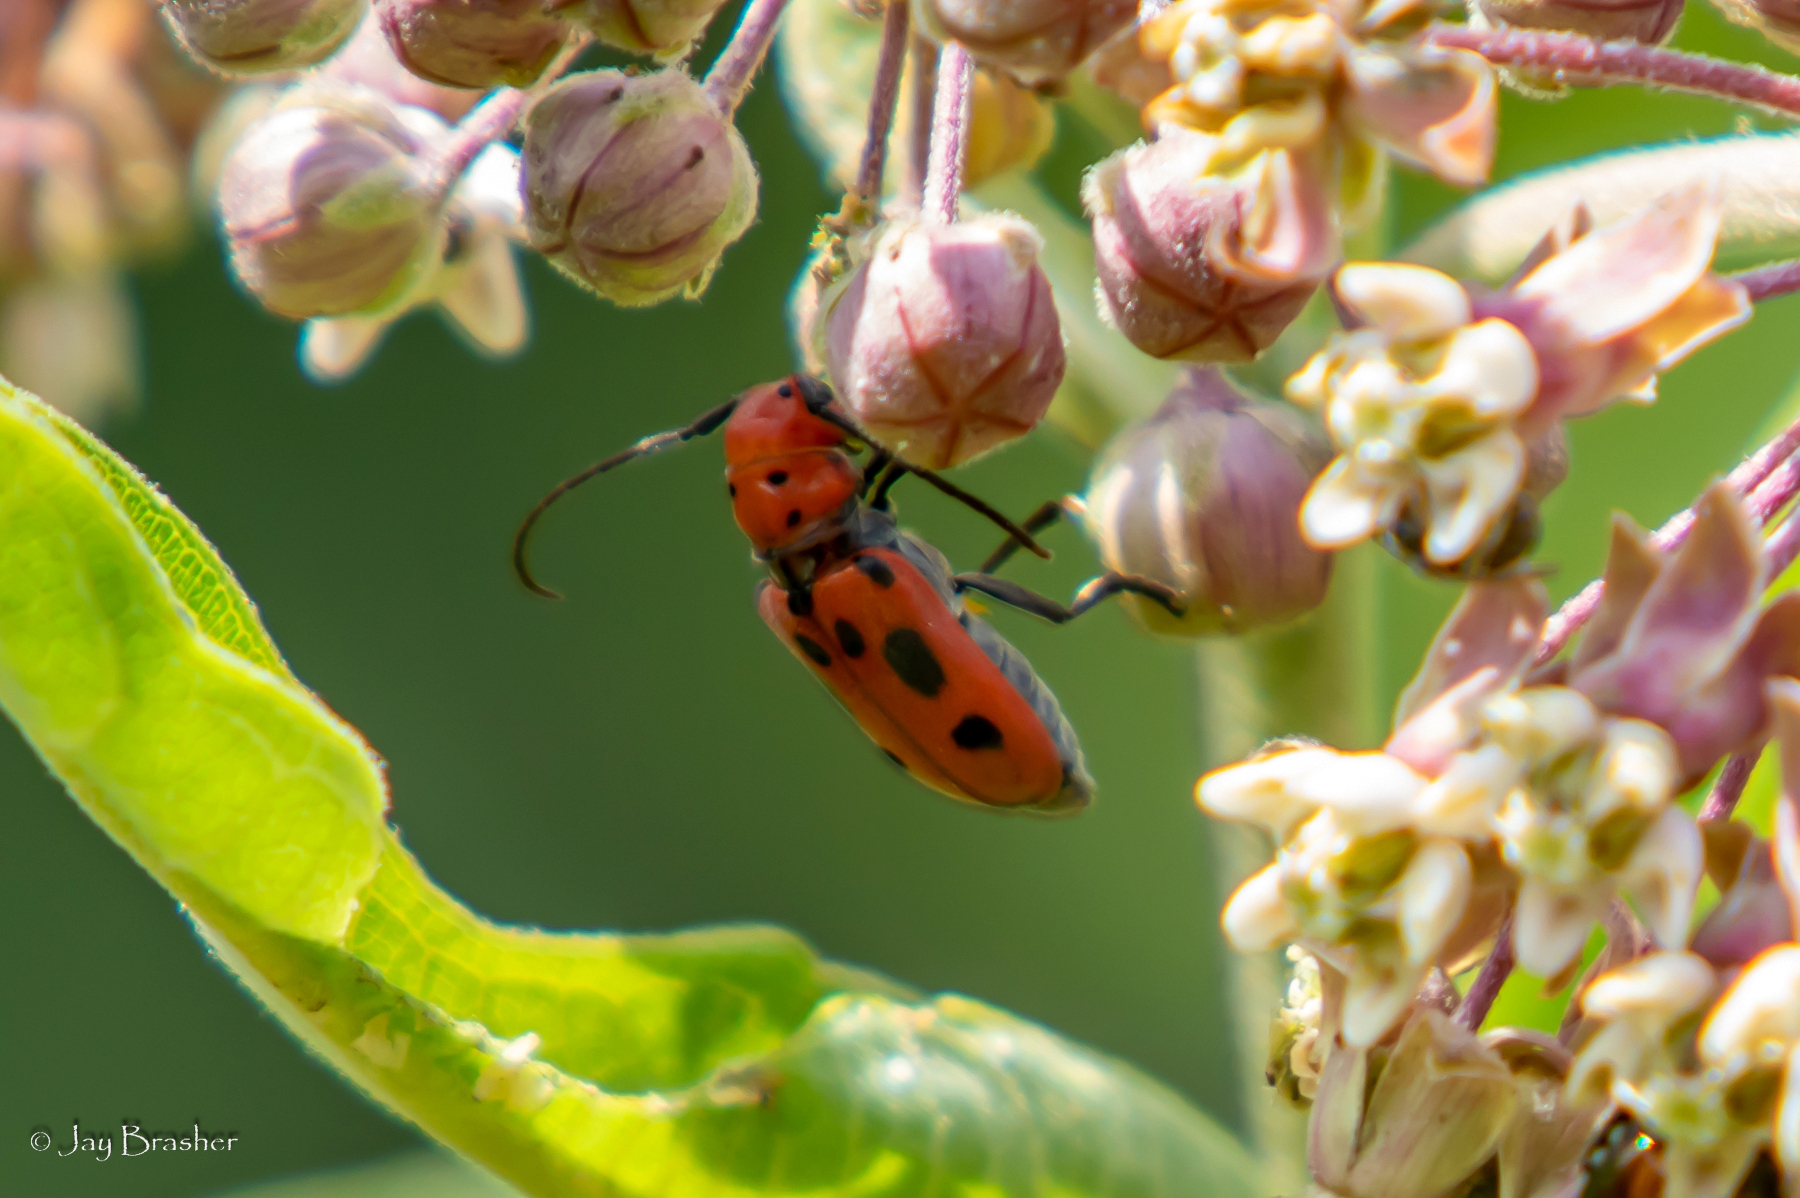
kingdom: Animalia
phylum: Arthropoda
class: Insecta
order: Coleoptera
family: Cerambycidae
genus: Tetraopes
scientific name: Tetraopes tetrophthalmus
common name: Red milkweed beetle
